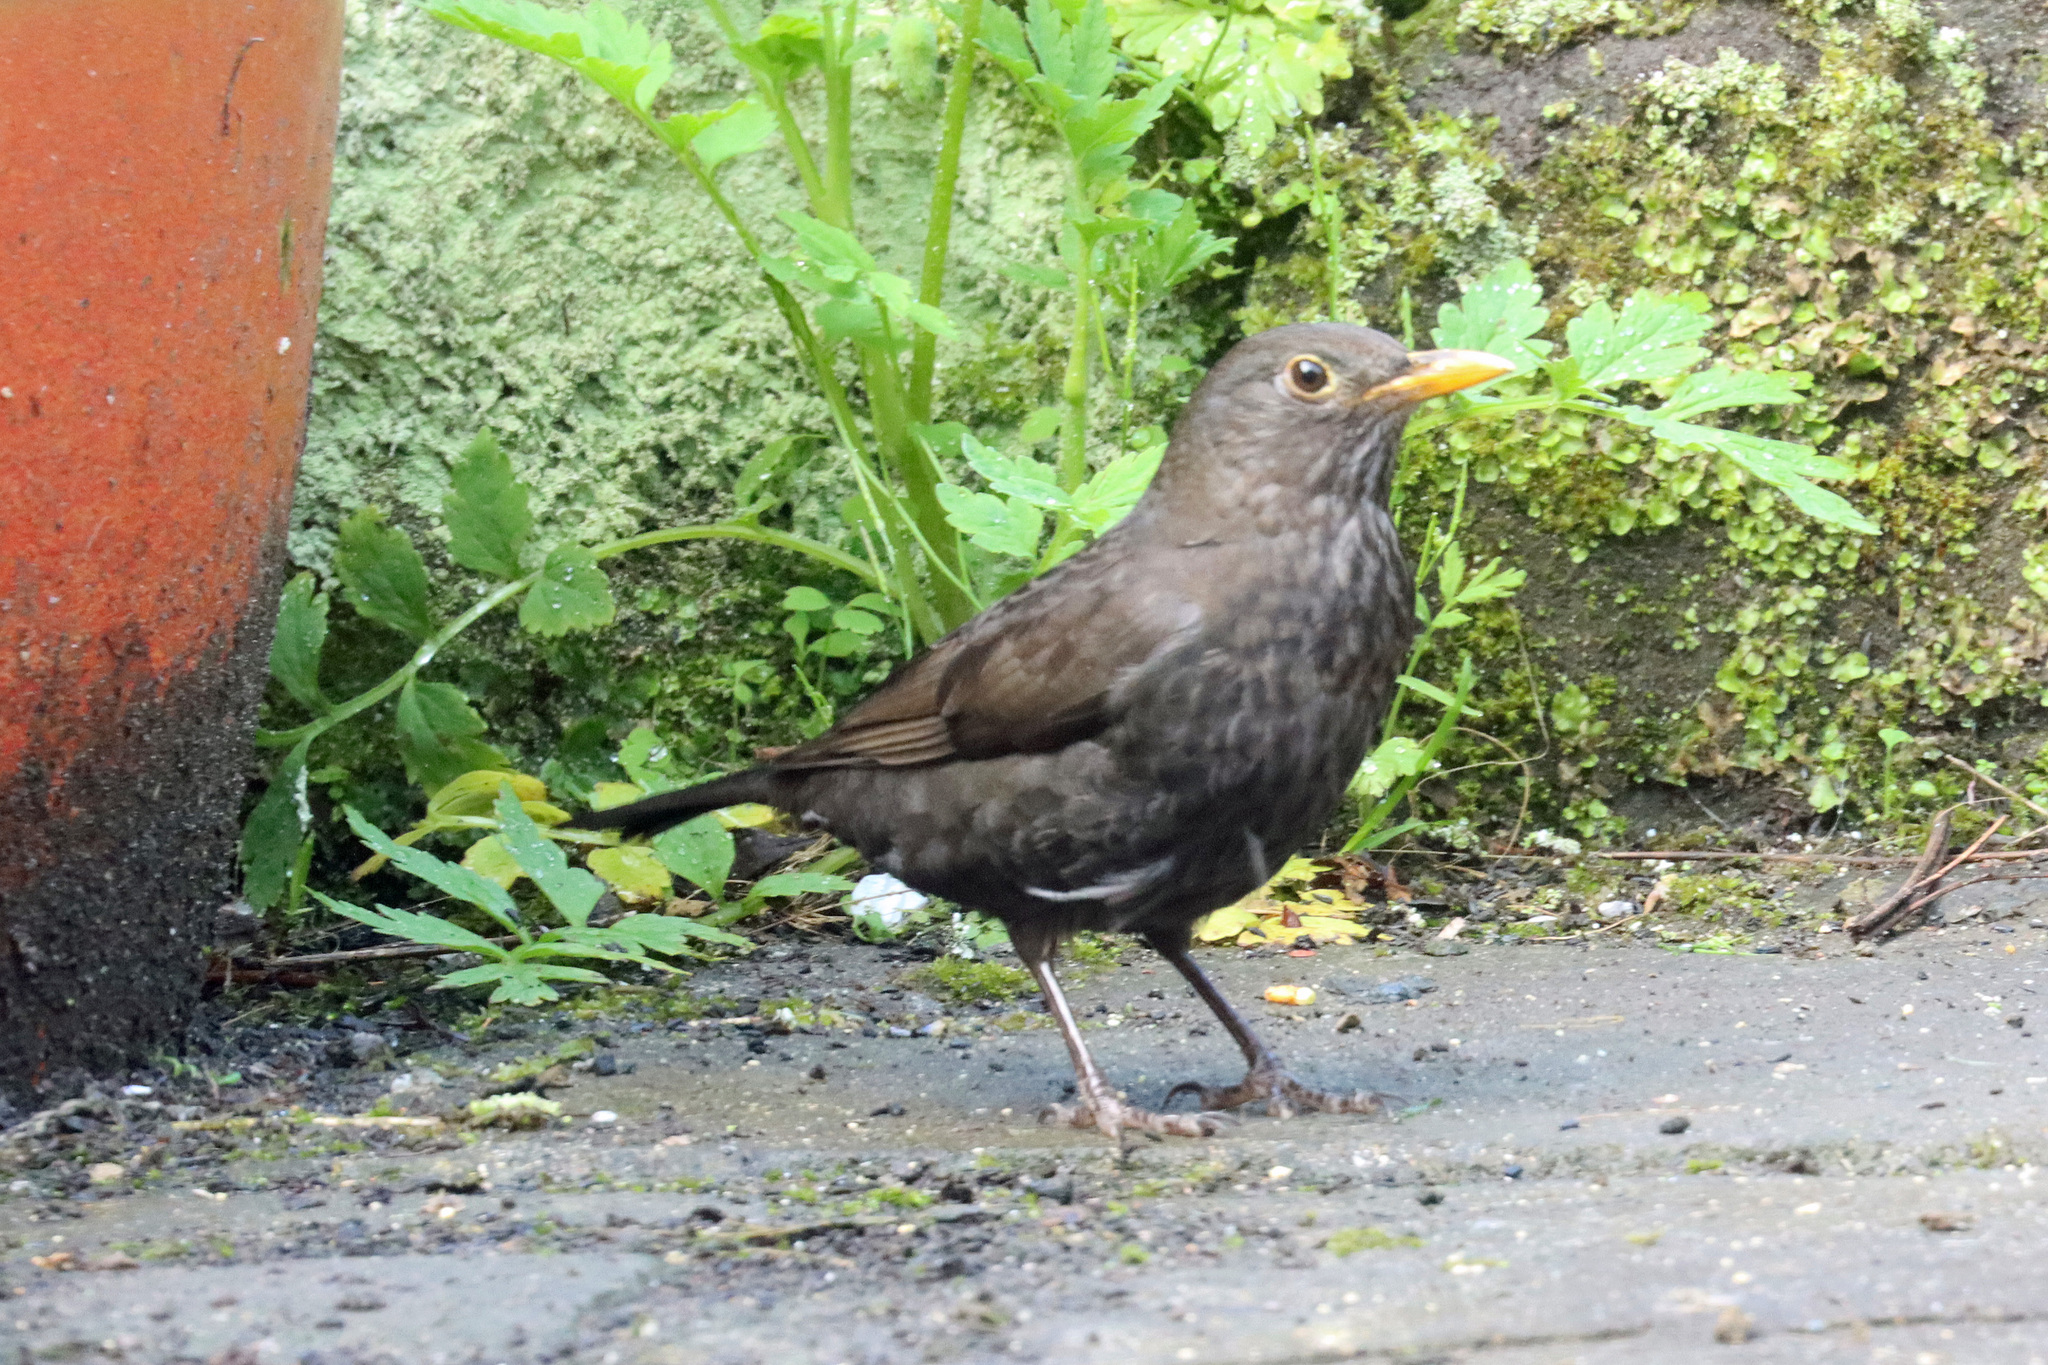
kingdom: Animalia
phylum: Chordata
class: Aves
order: Passeriformes
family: Turdidae
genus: Turdus
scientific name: Turdus merula
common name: Common blackbird
